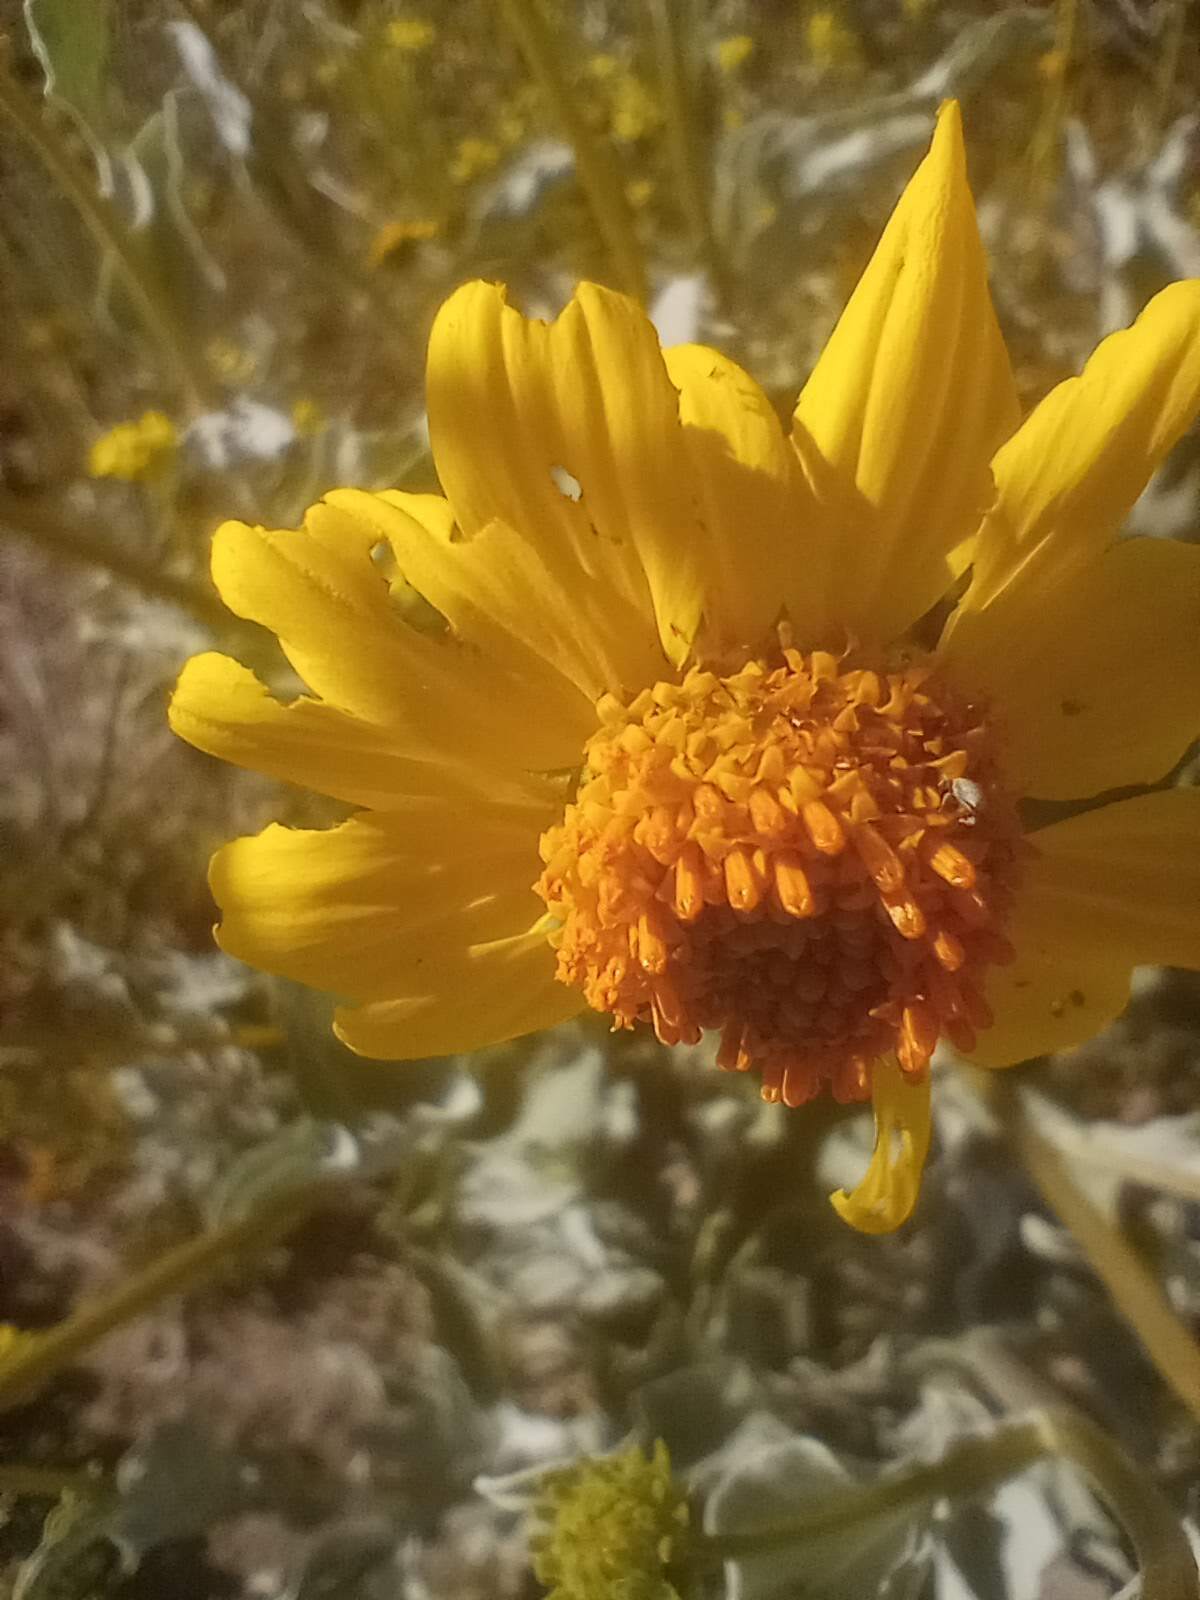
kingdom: Plantae
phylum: Tracheophyta
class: Magnoliopsida
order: Asterales
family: Asteraceae
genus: Encelia
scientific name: Encelia farinosa
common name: Brittlebush
